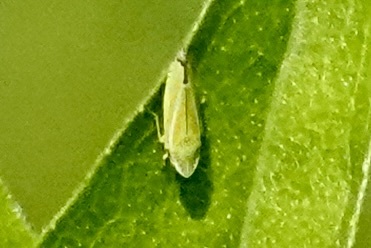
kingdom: Animalia
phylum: Arthropoda
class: Insecta
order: Hemiptera
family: Cicadellidae
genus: Graphocephala
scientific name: Graphocephala versuta
